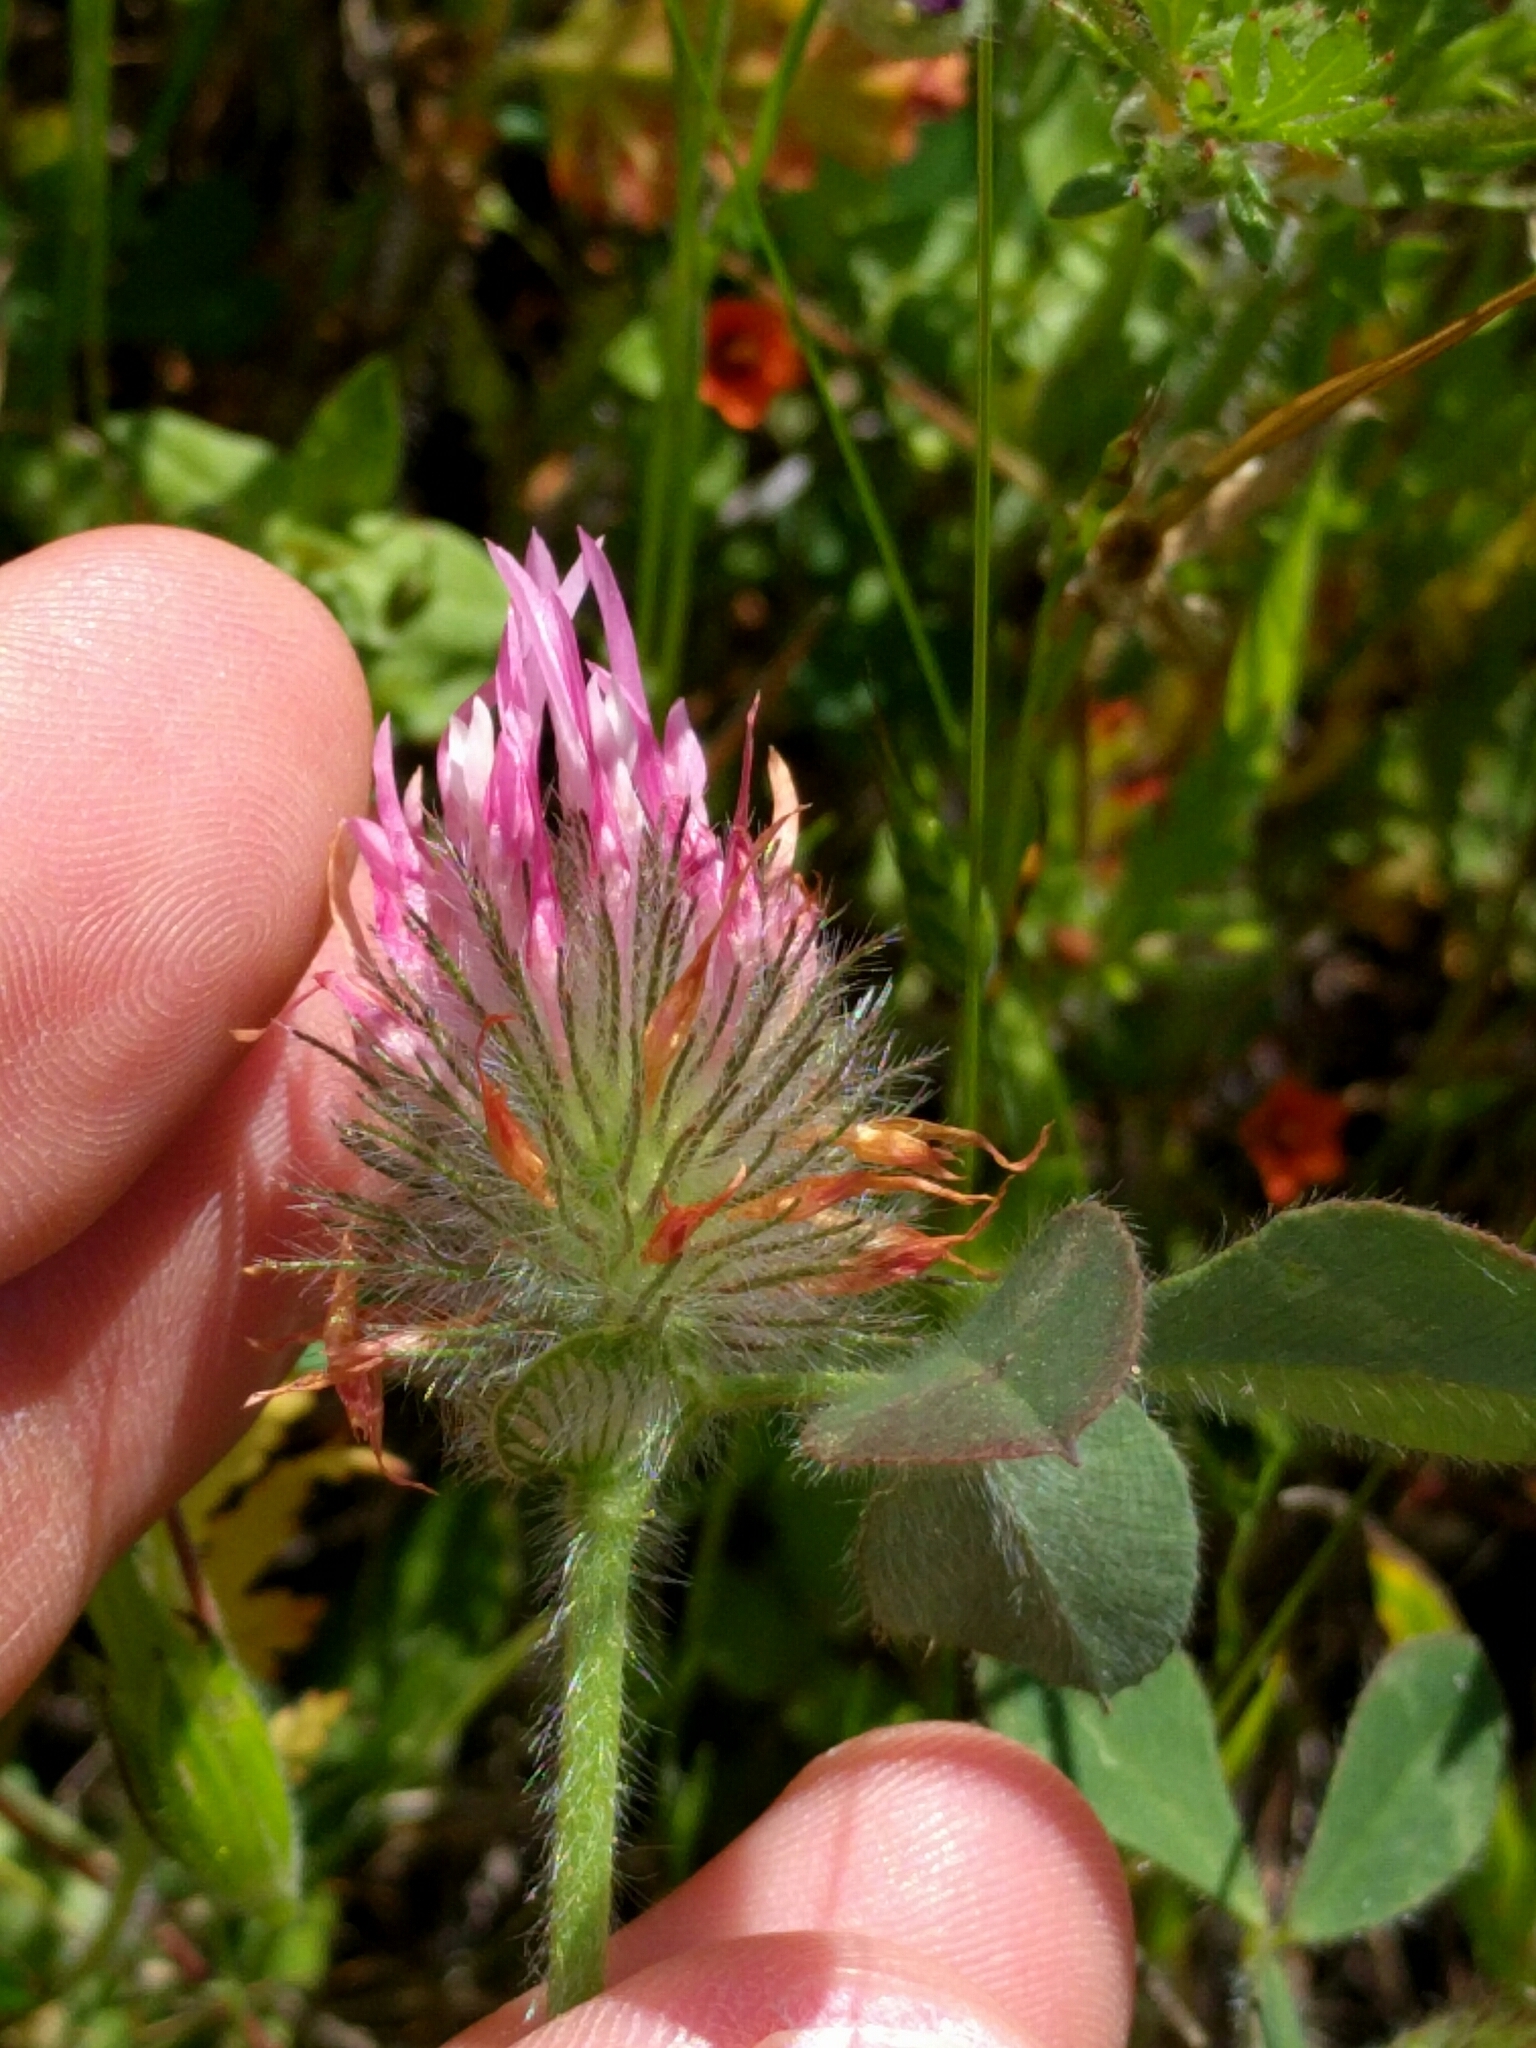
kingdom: Plantae
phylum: Tracheophyta
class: Magnoliopsida
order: Fabales
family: Fabaceae
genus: Trifolium
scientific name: Trifolium hirtum
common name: Rose clover
